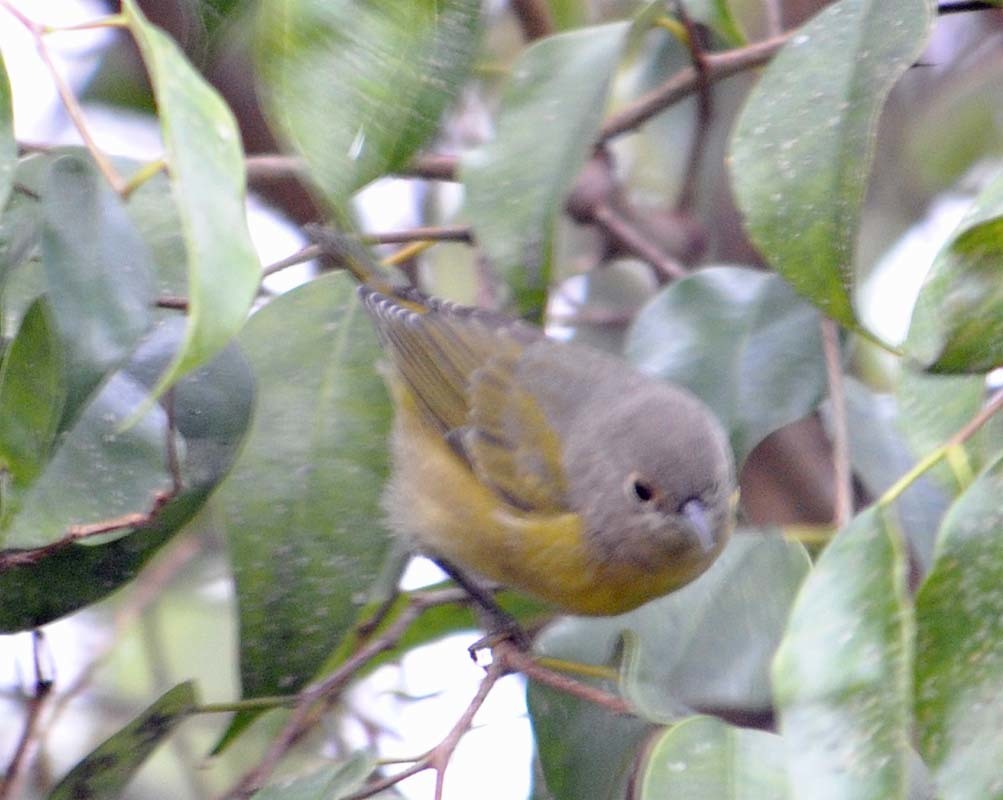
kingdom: Animalia
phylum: Chordata
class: Aves
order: Passeriformes
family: Parulidae
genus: Leiothlypis
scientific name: Leiothlypis ruficapilla
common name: Nashville warbler
